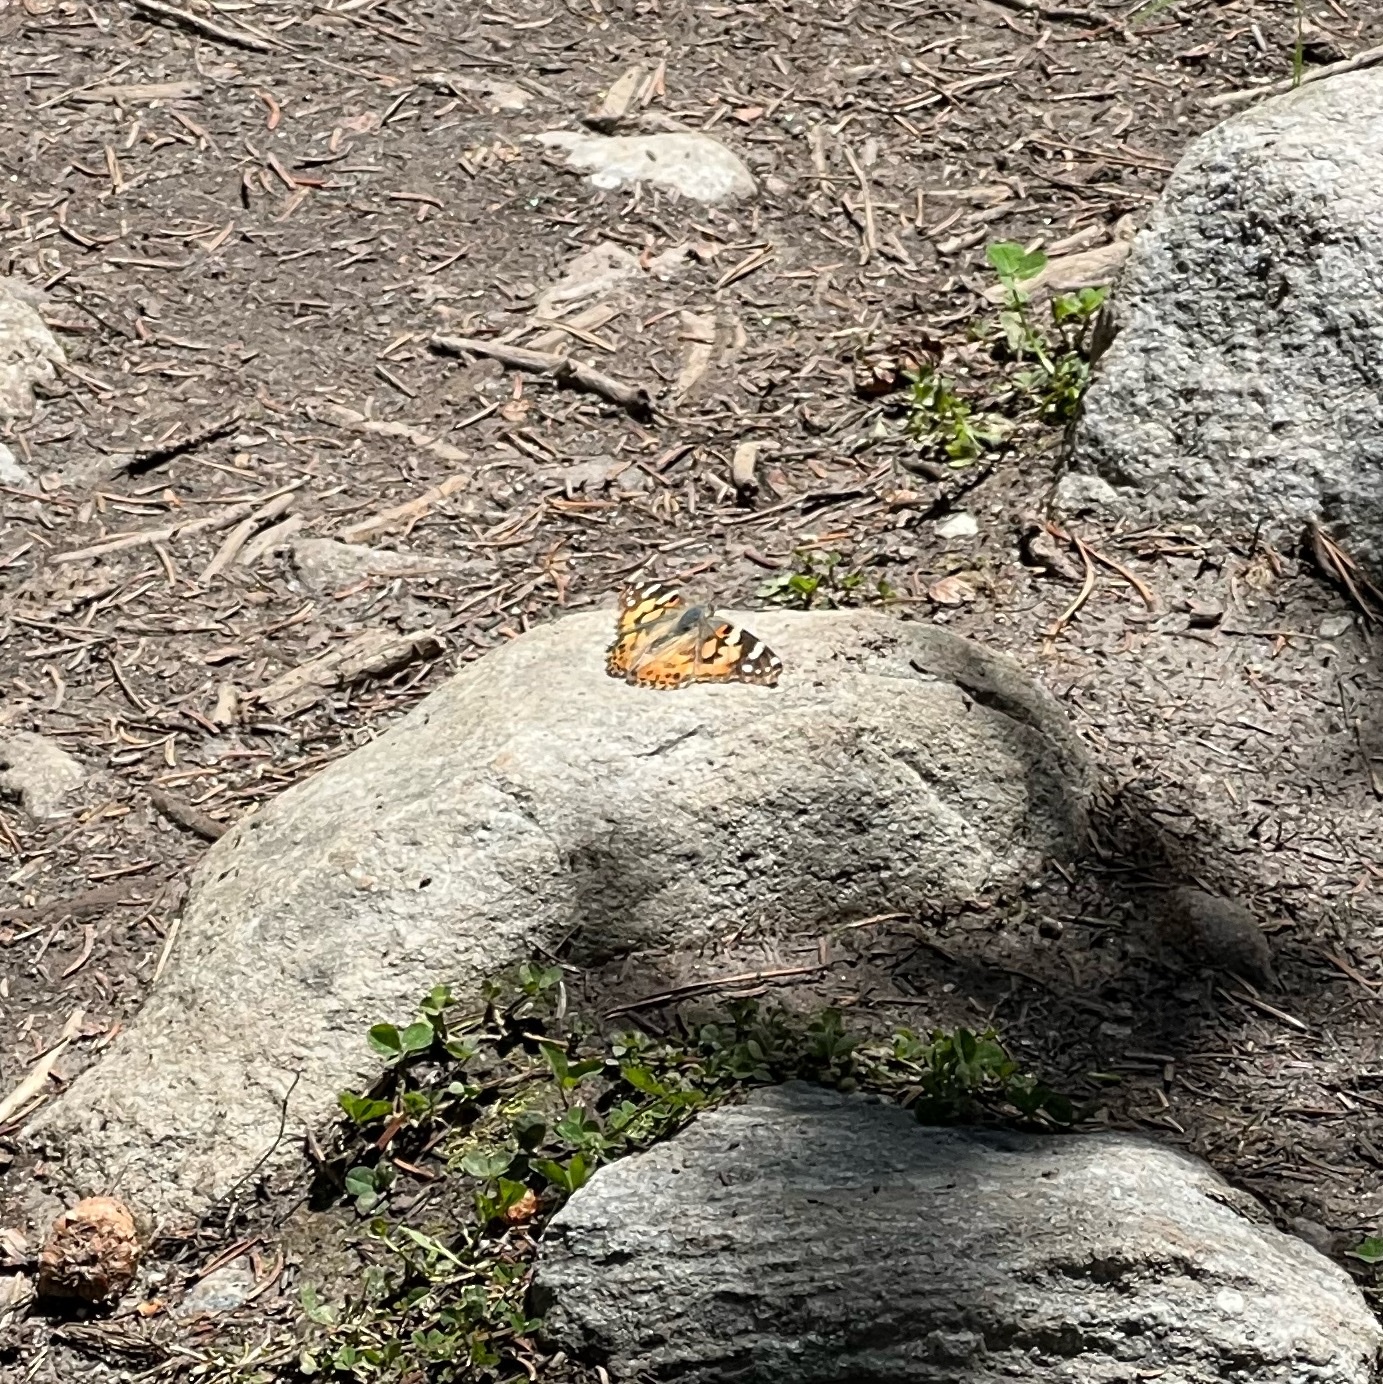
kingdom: Animalia
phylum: Arthropoda
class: Insecta
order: Lepidoptera
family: Nymphalidae
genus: Vanessa
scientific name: Vanessa cardui
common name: Painted lady
